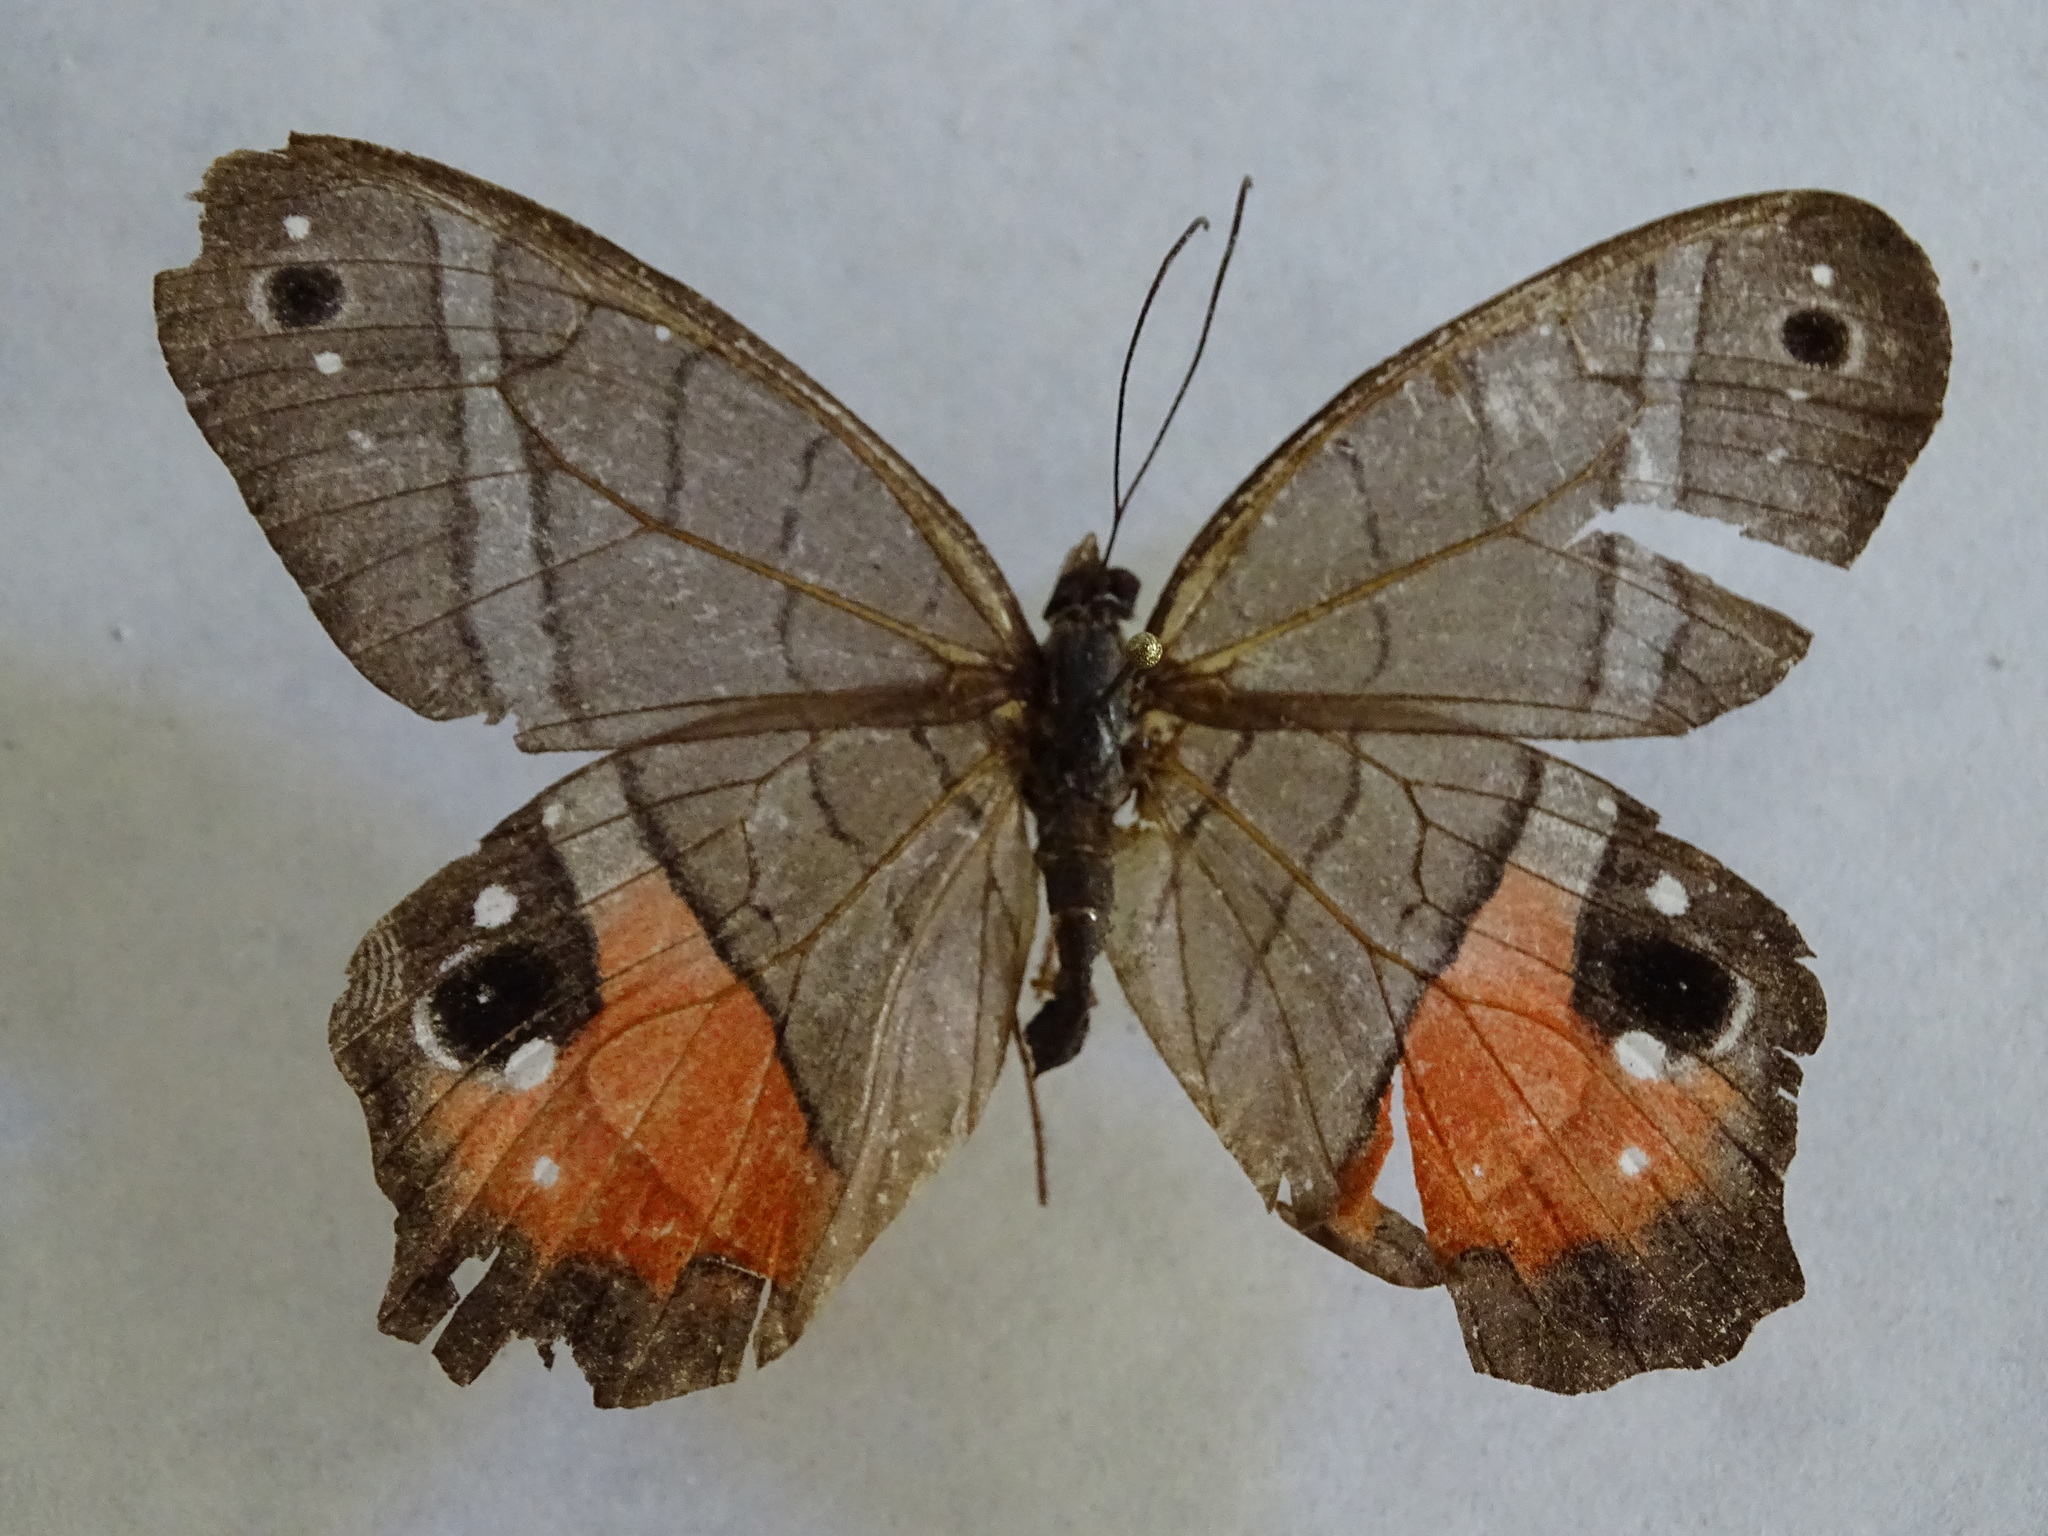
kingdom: Animalia
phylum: Arthropoda
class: Insecta
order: Lepidoptera
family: Nymphalidae
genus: Pierella
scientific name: Pierella helvina
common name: Red-washed satyr
